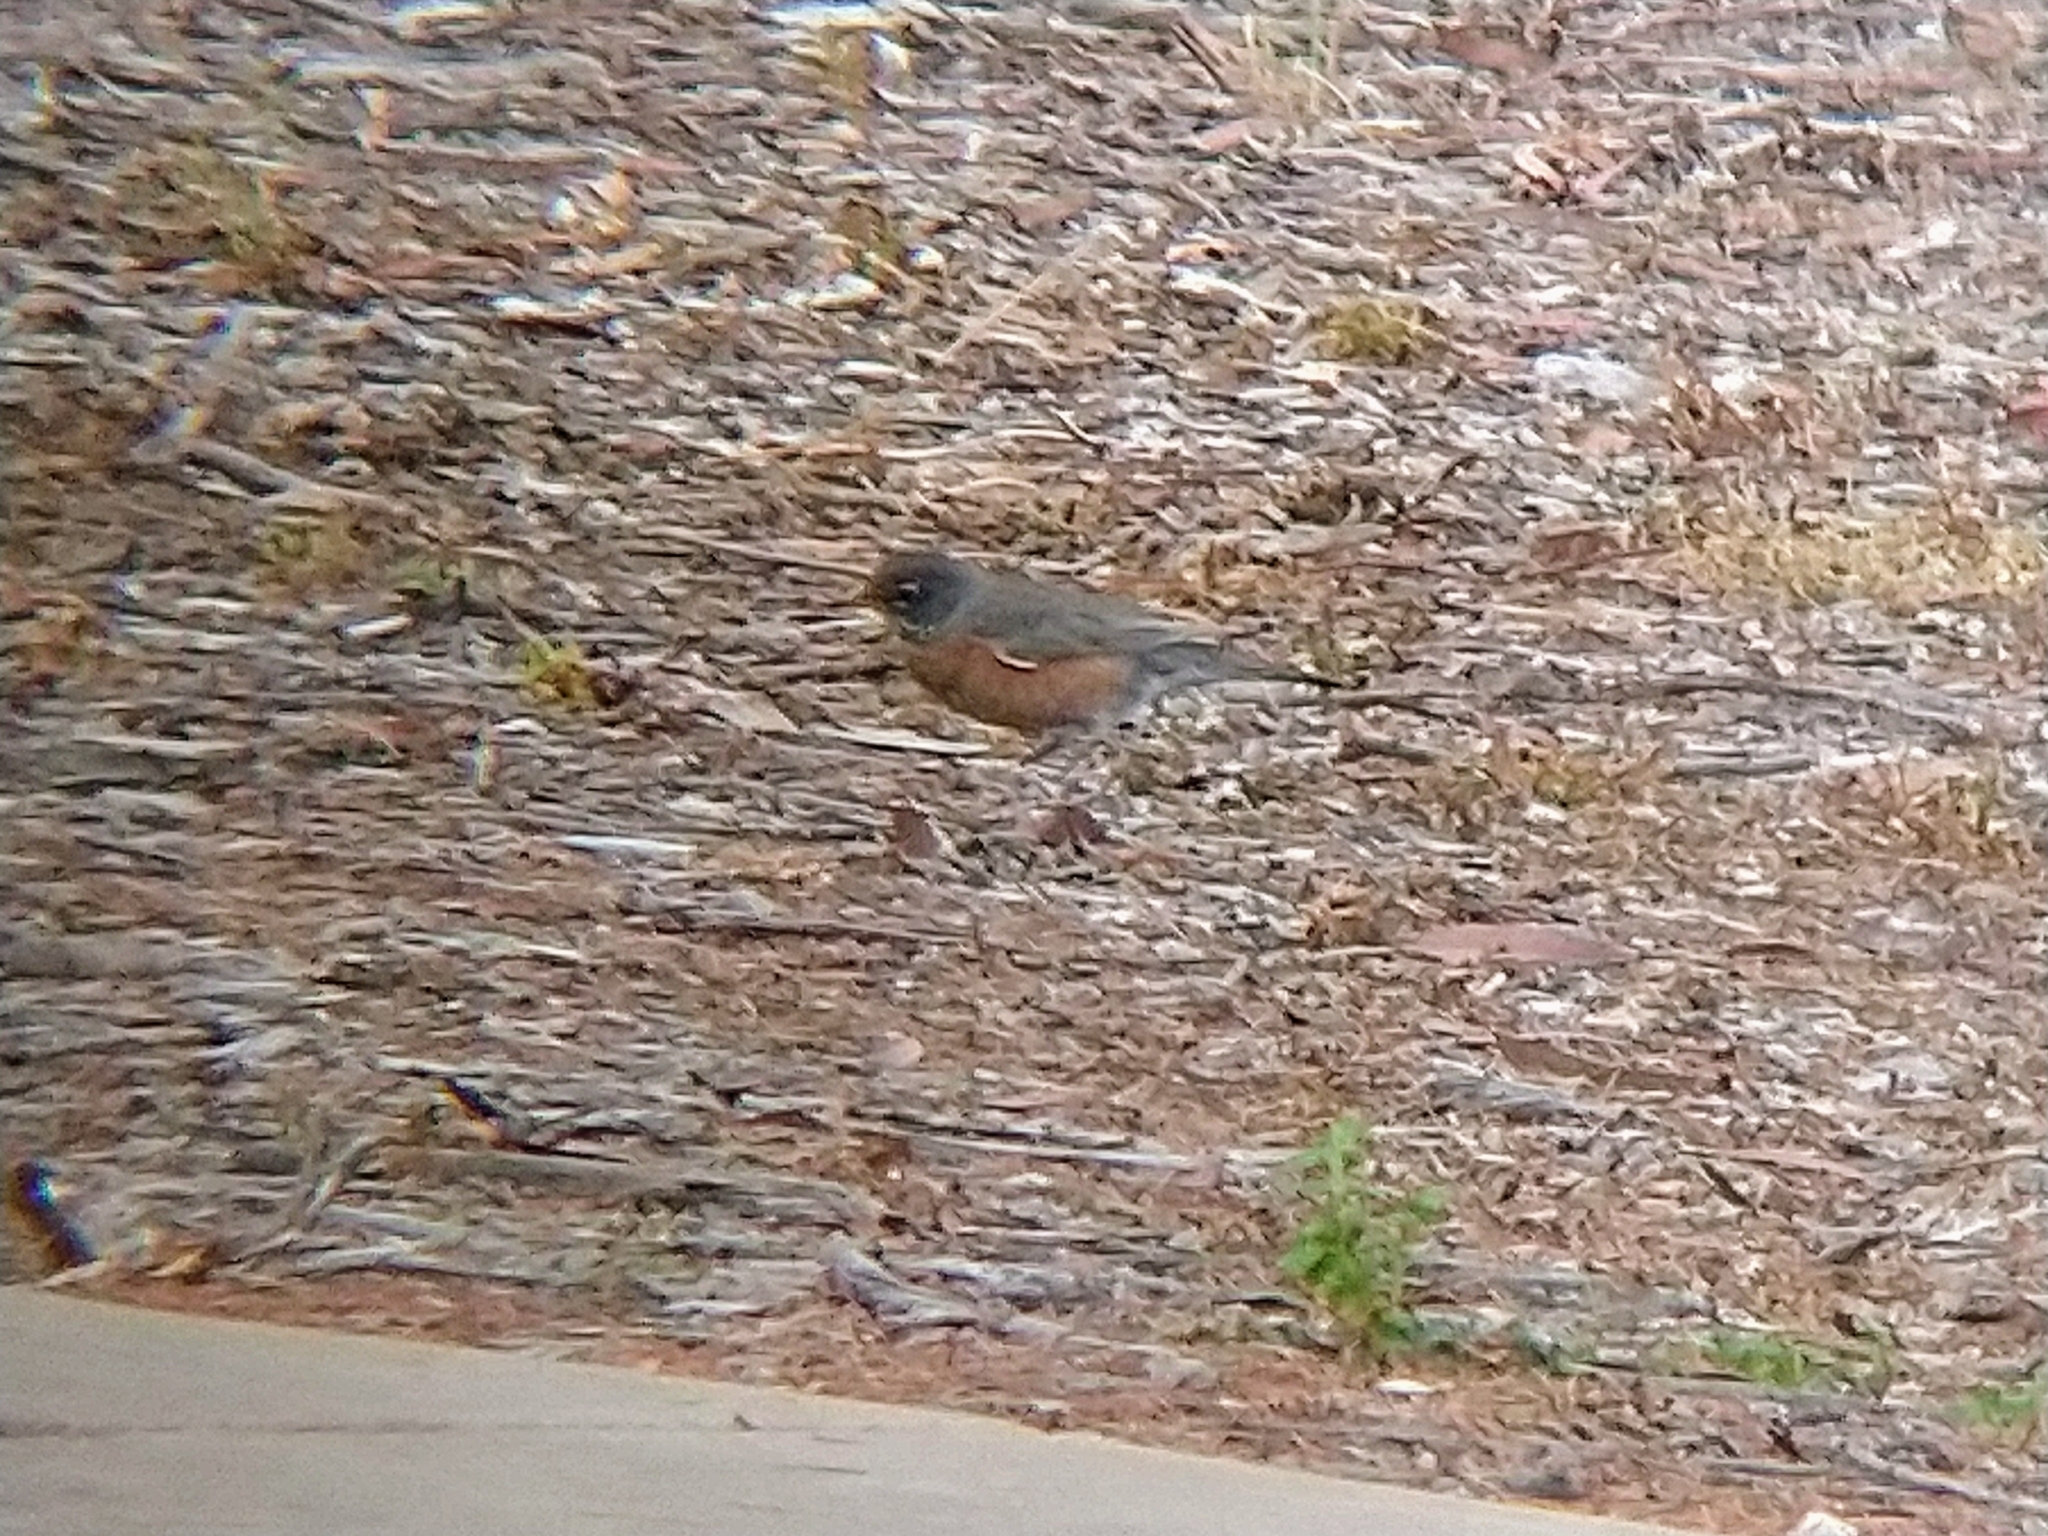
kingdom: Animalia
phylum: Chordata
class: Aves
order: Passeriformes
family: Turdidae
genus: Turdus
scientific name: Turdus migratorius
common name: American robin
